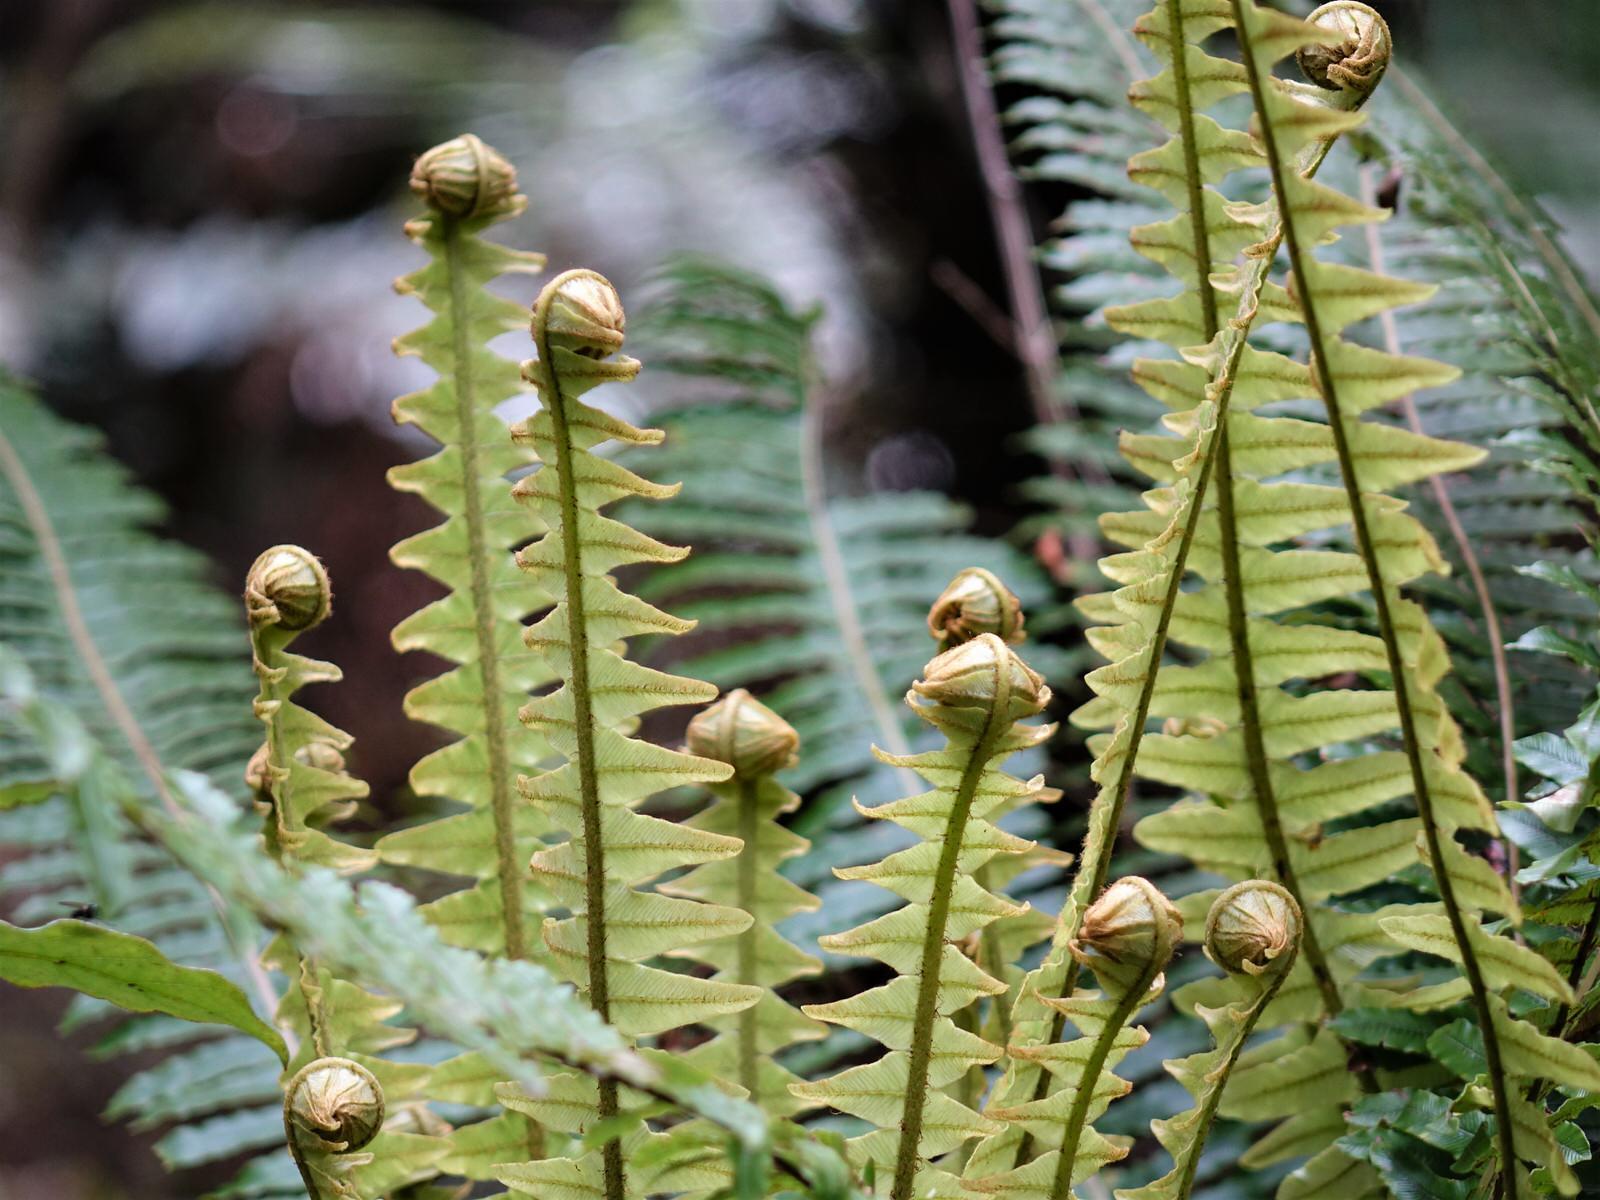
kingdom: Plantae
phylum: Tracheophyta
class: Polypodiopsida
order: Polypodiales
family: Blechnaceae
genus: Lomaria
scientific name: Lomaria discolor
